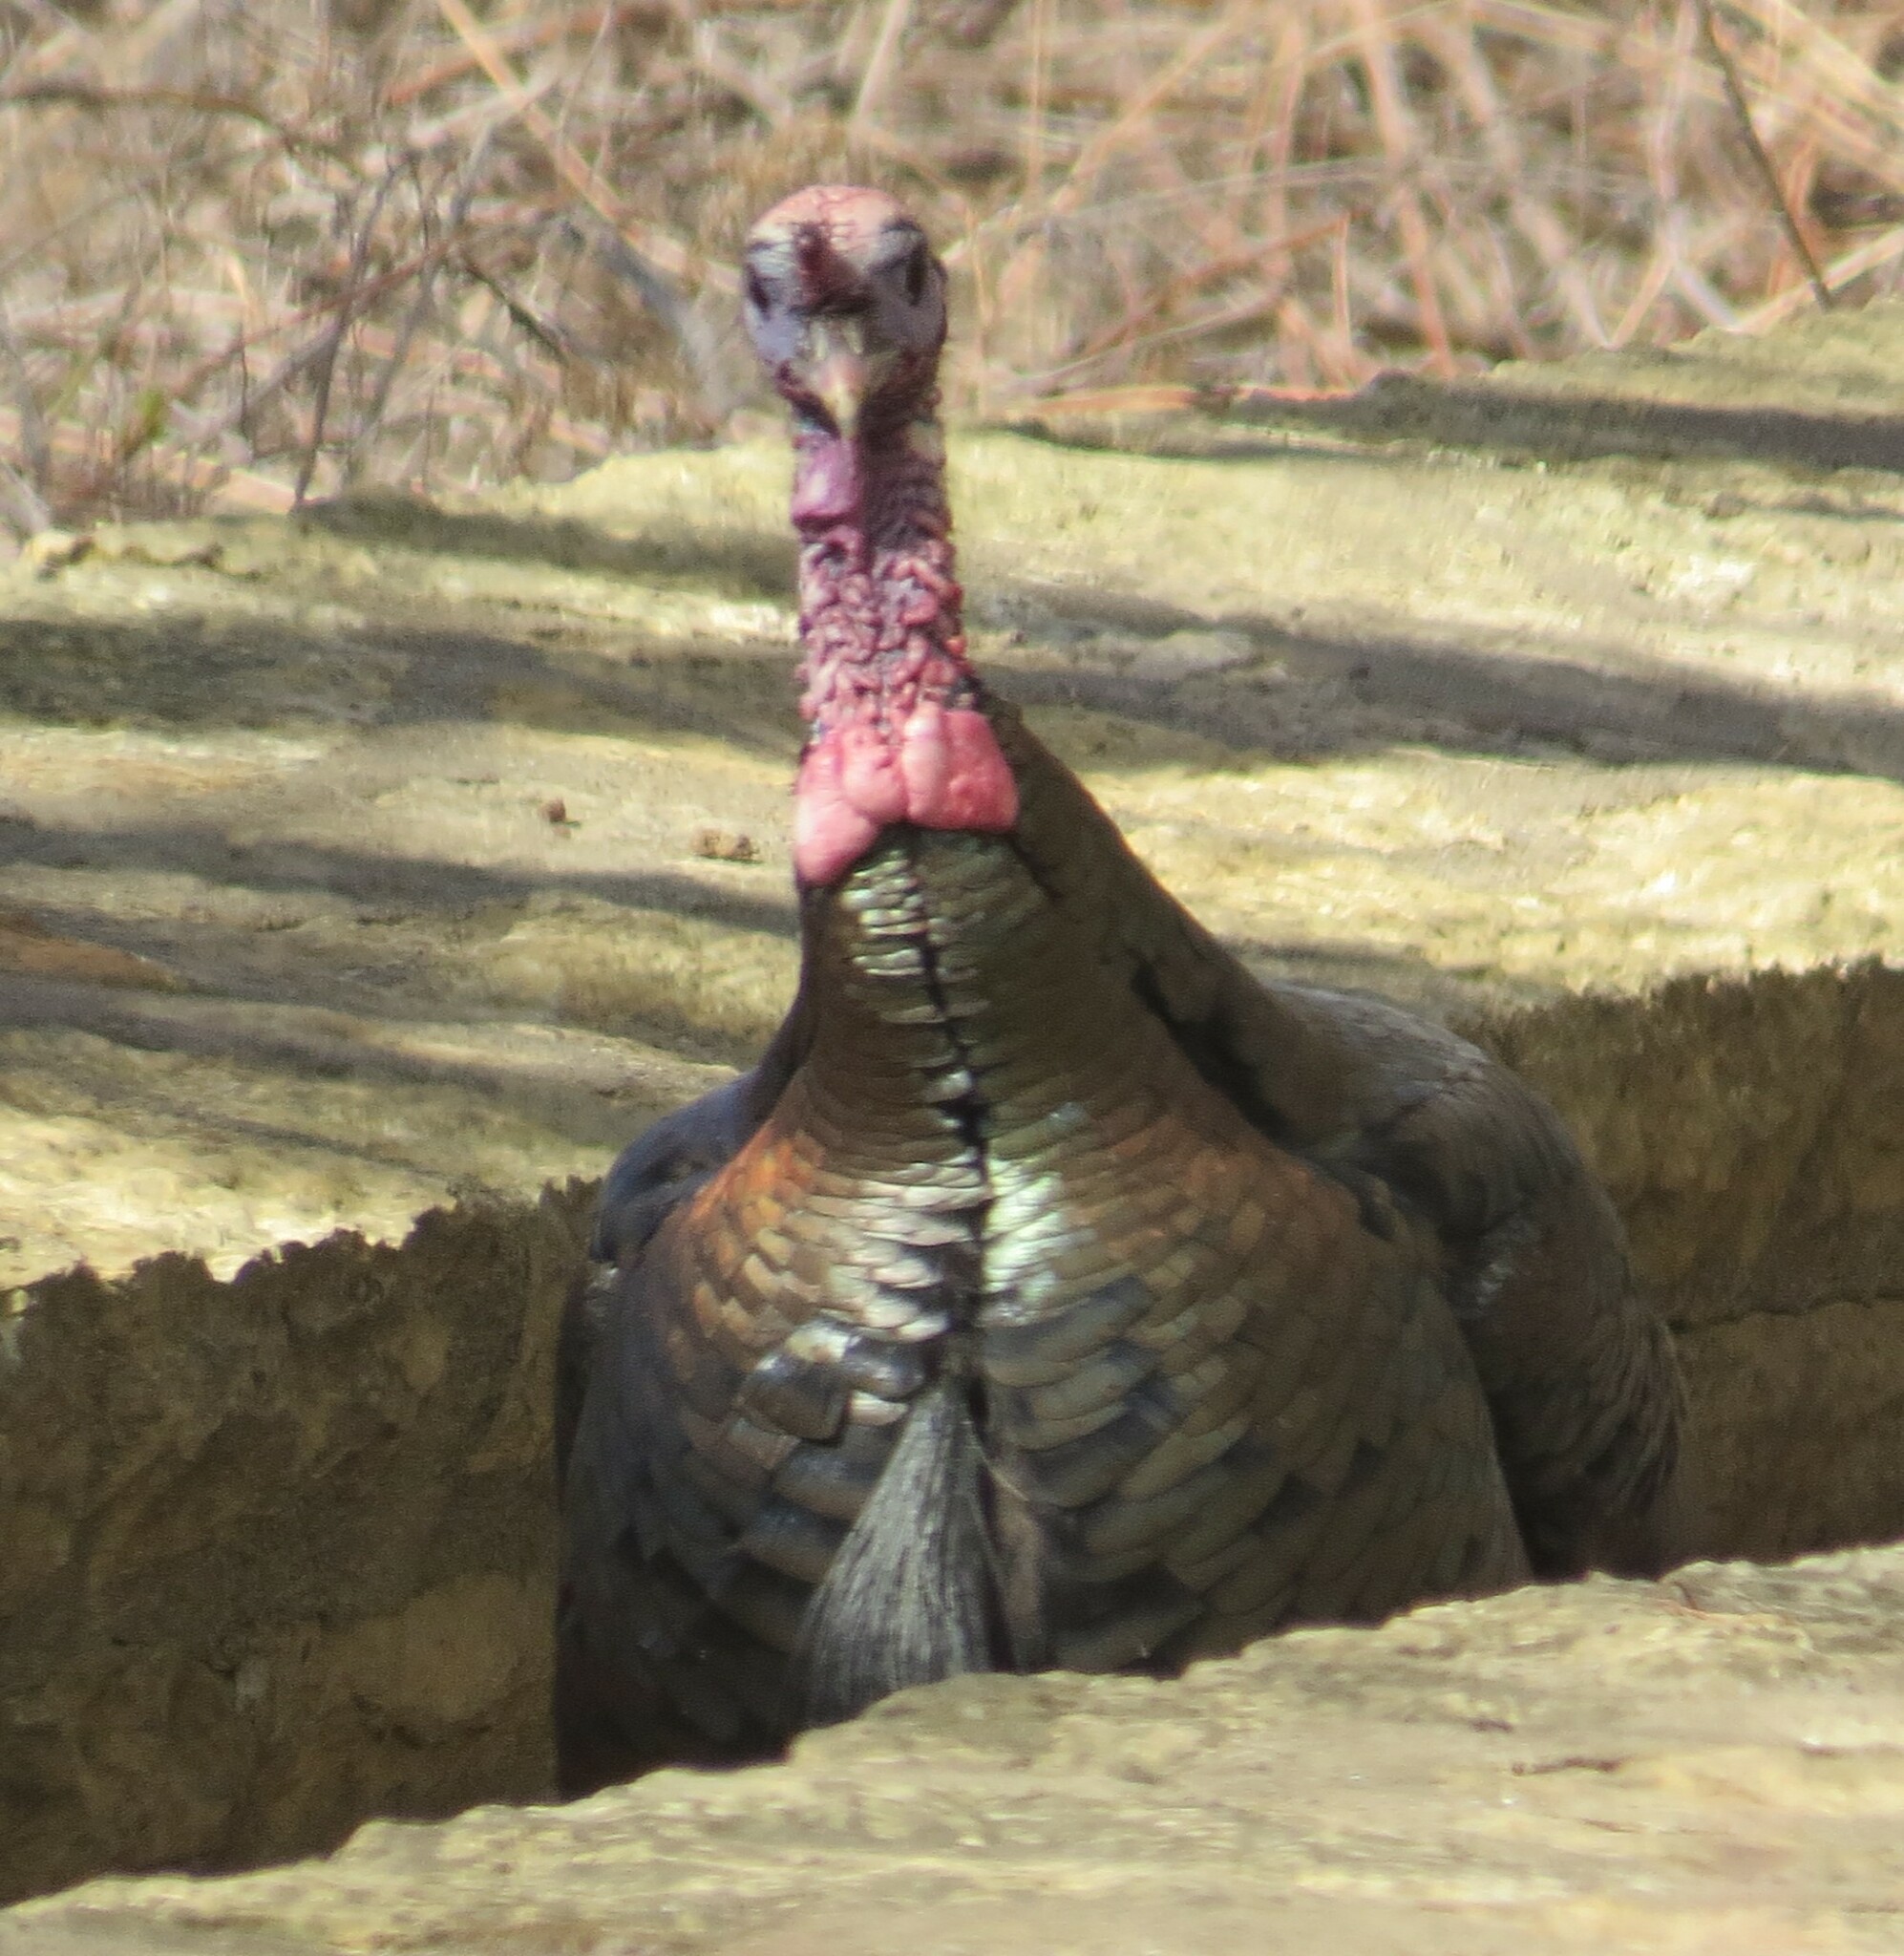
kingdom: Animalia
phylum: Chordata
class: Aves
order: Galliformes
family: Phasianidae
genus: Meleagris
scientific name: Meleagris gallopavo
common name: Wild turkey
